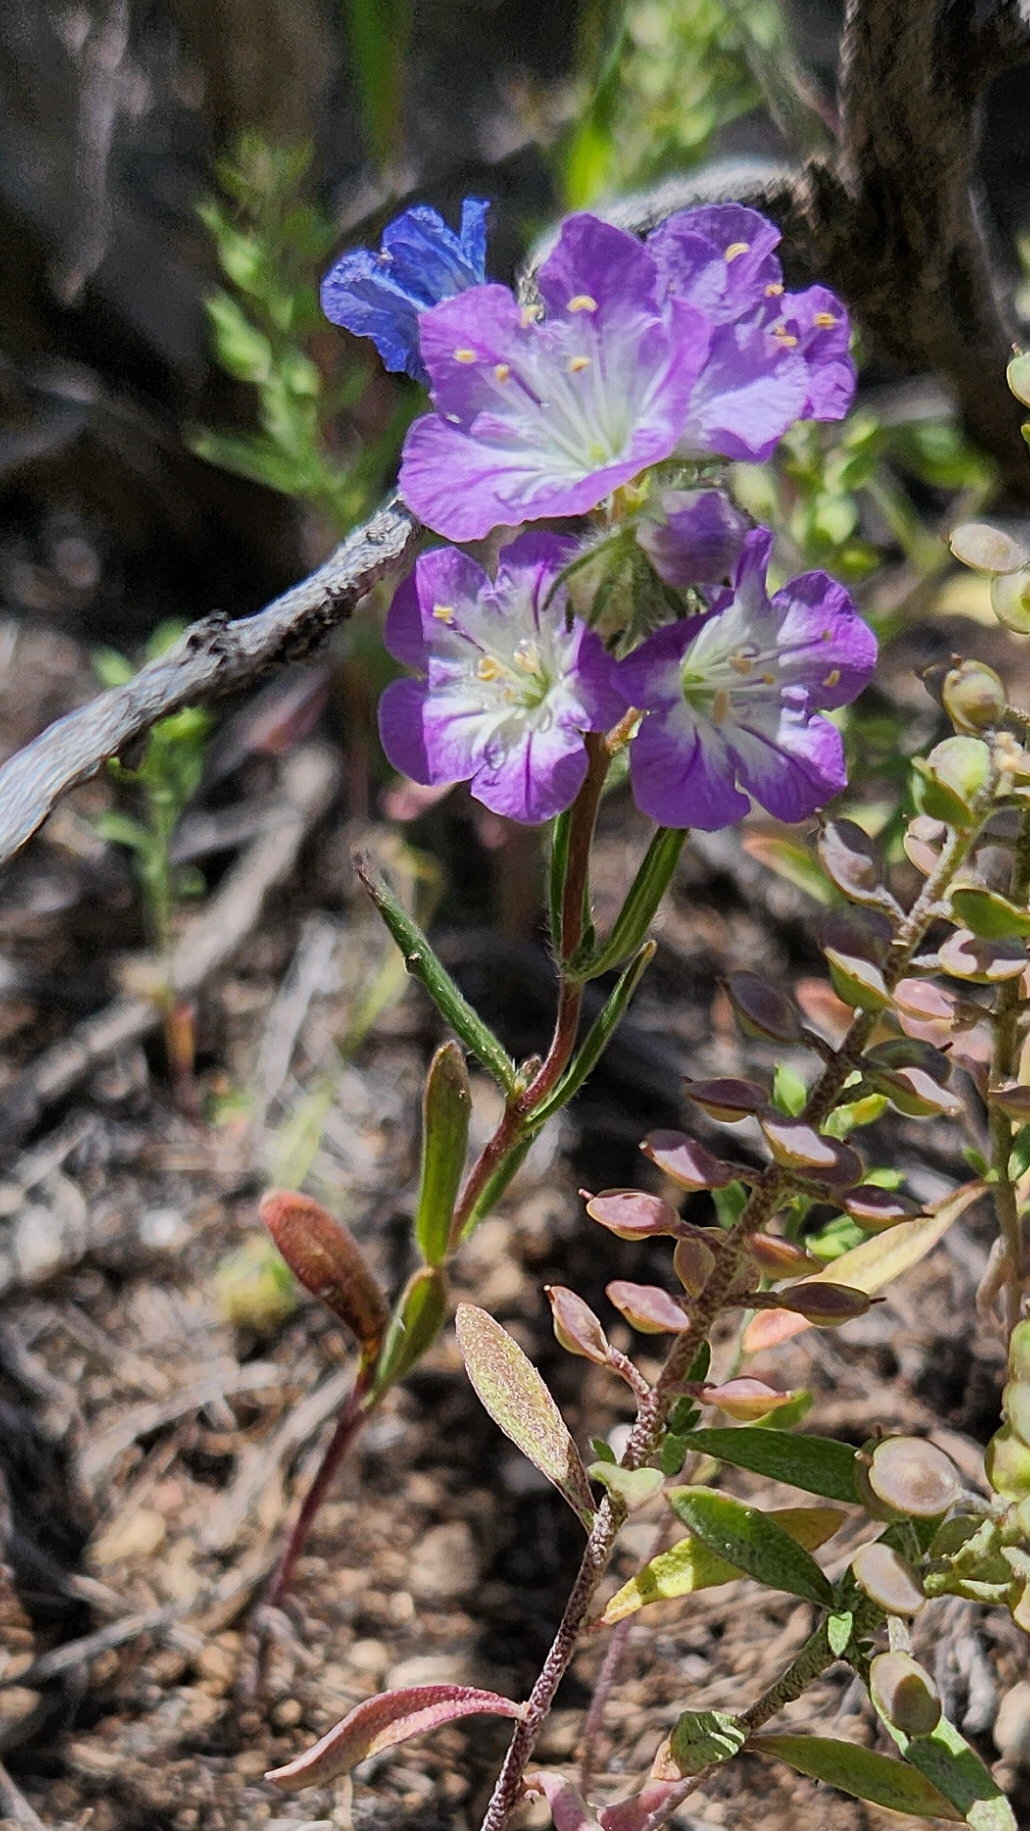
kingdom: Plantae
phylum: Tracheophyta
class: Magnoliopsida
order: Boraginales
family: Hydrophyllaceae
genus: Phacelia
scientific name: Phacelia linearis
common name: Linear-leaved phacelia
